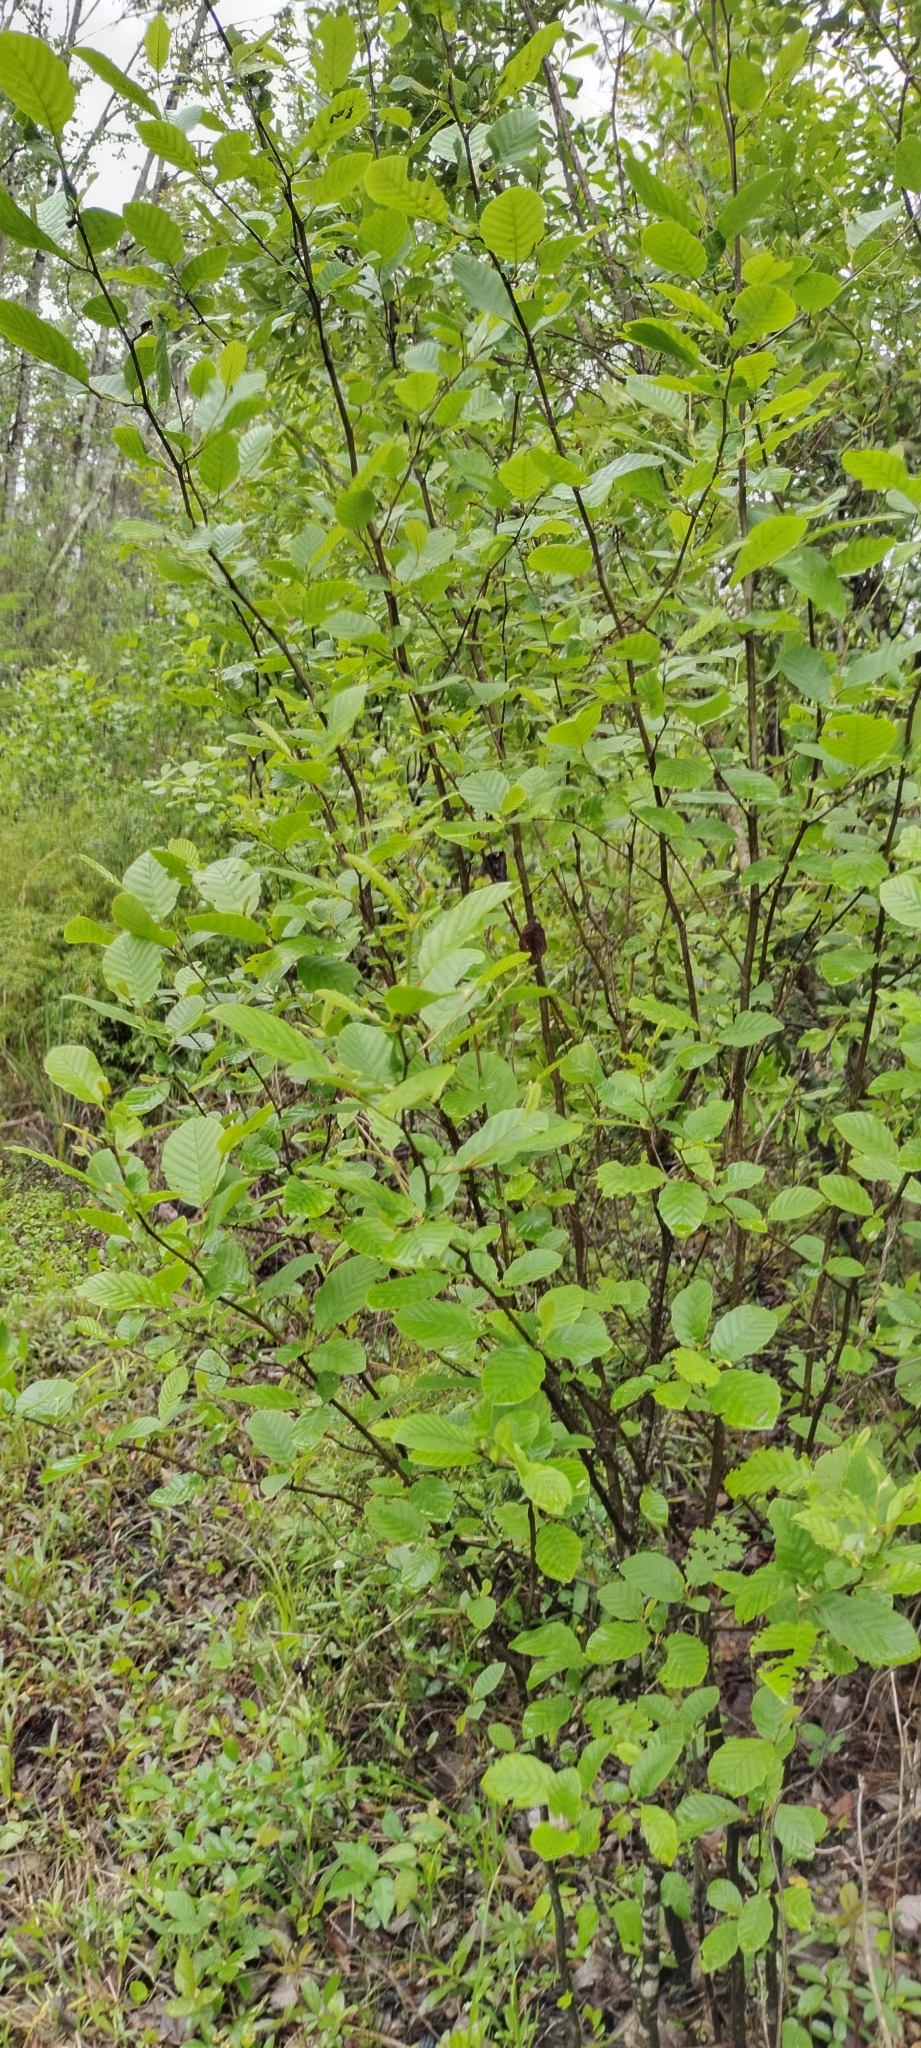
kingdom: Plantae
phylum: Tracheophyta
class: Magnoliopsida
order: Fagales
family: Betulaceae
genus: Alnus
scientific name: Alnus serrulata
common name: Hazel alder
